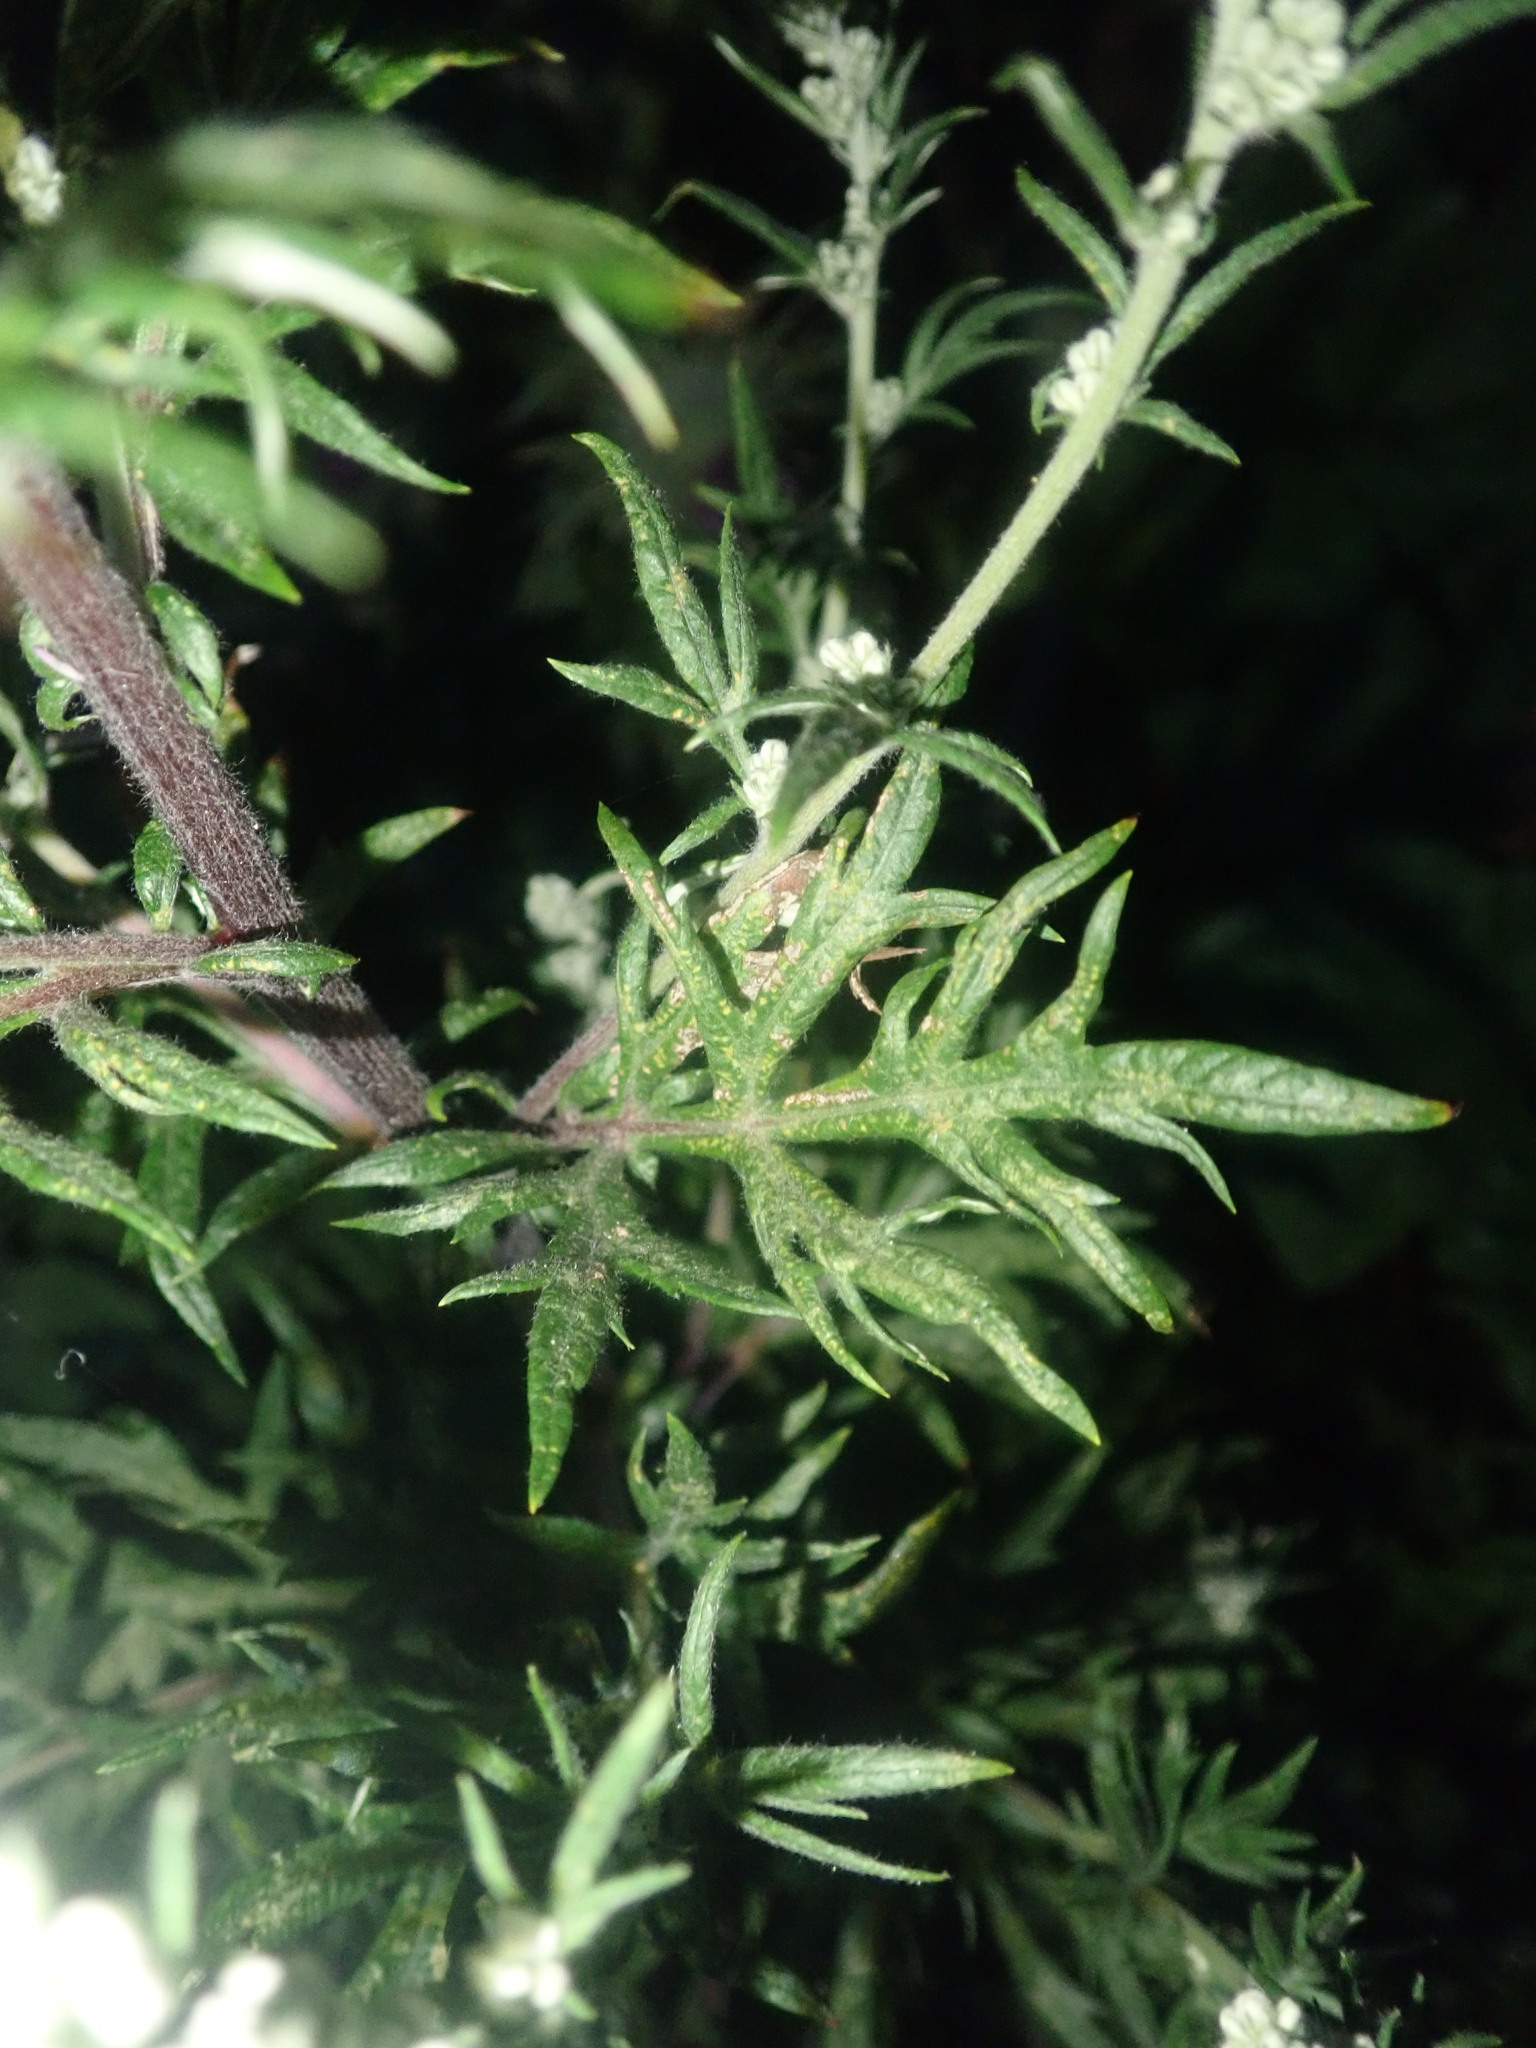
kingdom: Plantae
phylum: Tracheophyta
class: Magnoliopsida
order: Asterales
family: Asteraceae
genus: Artemisia
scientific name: Artemisia vulgaris
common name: Mugwort
